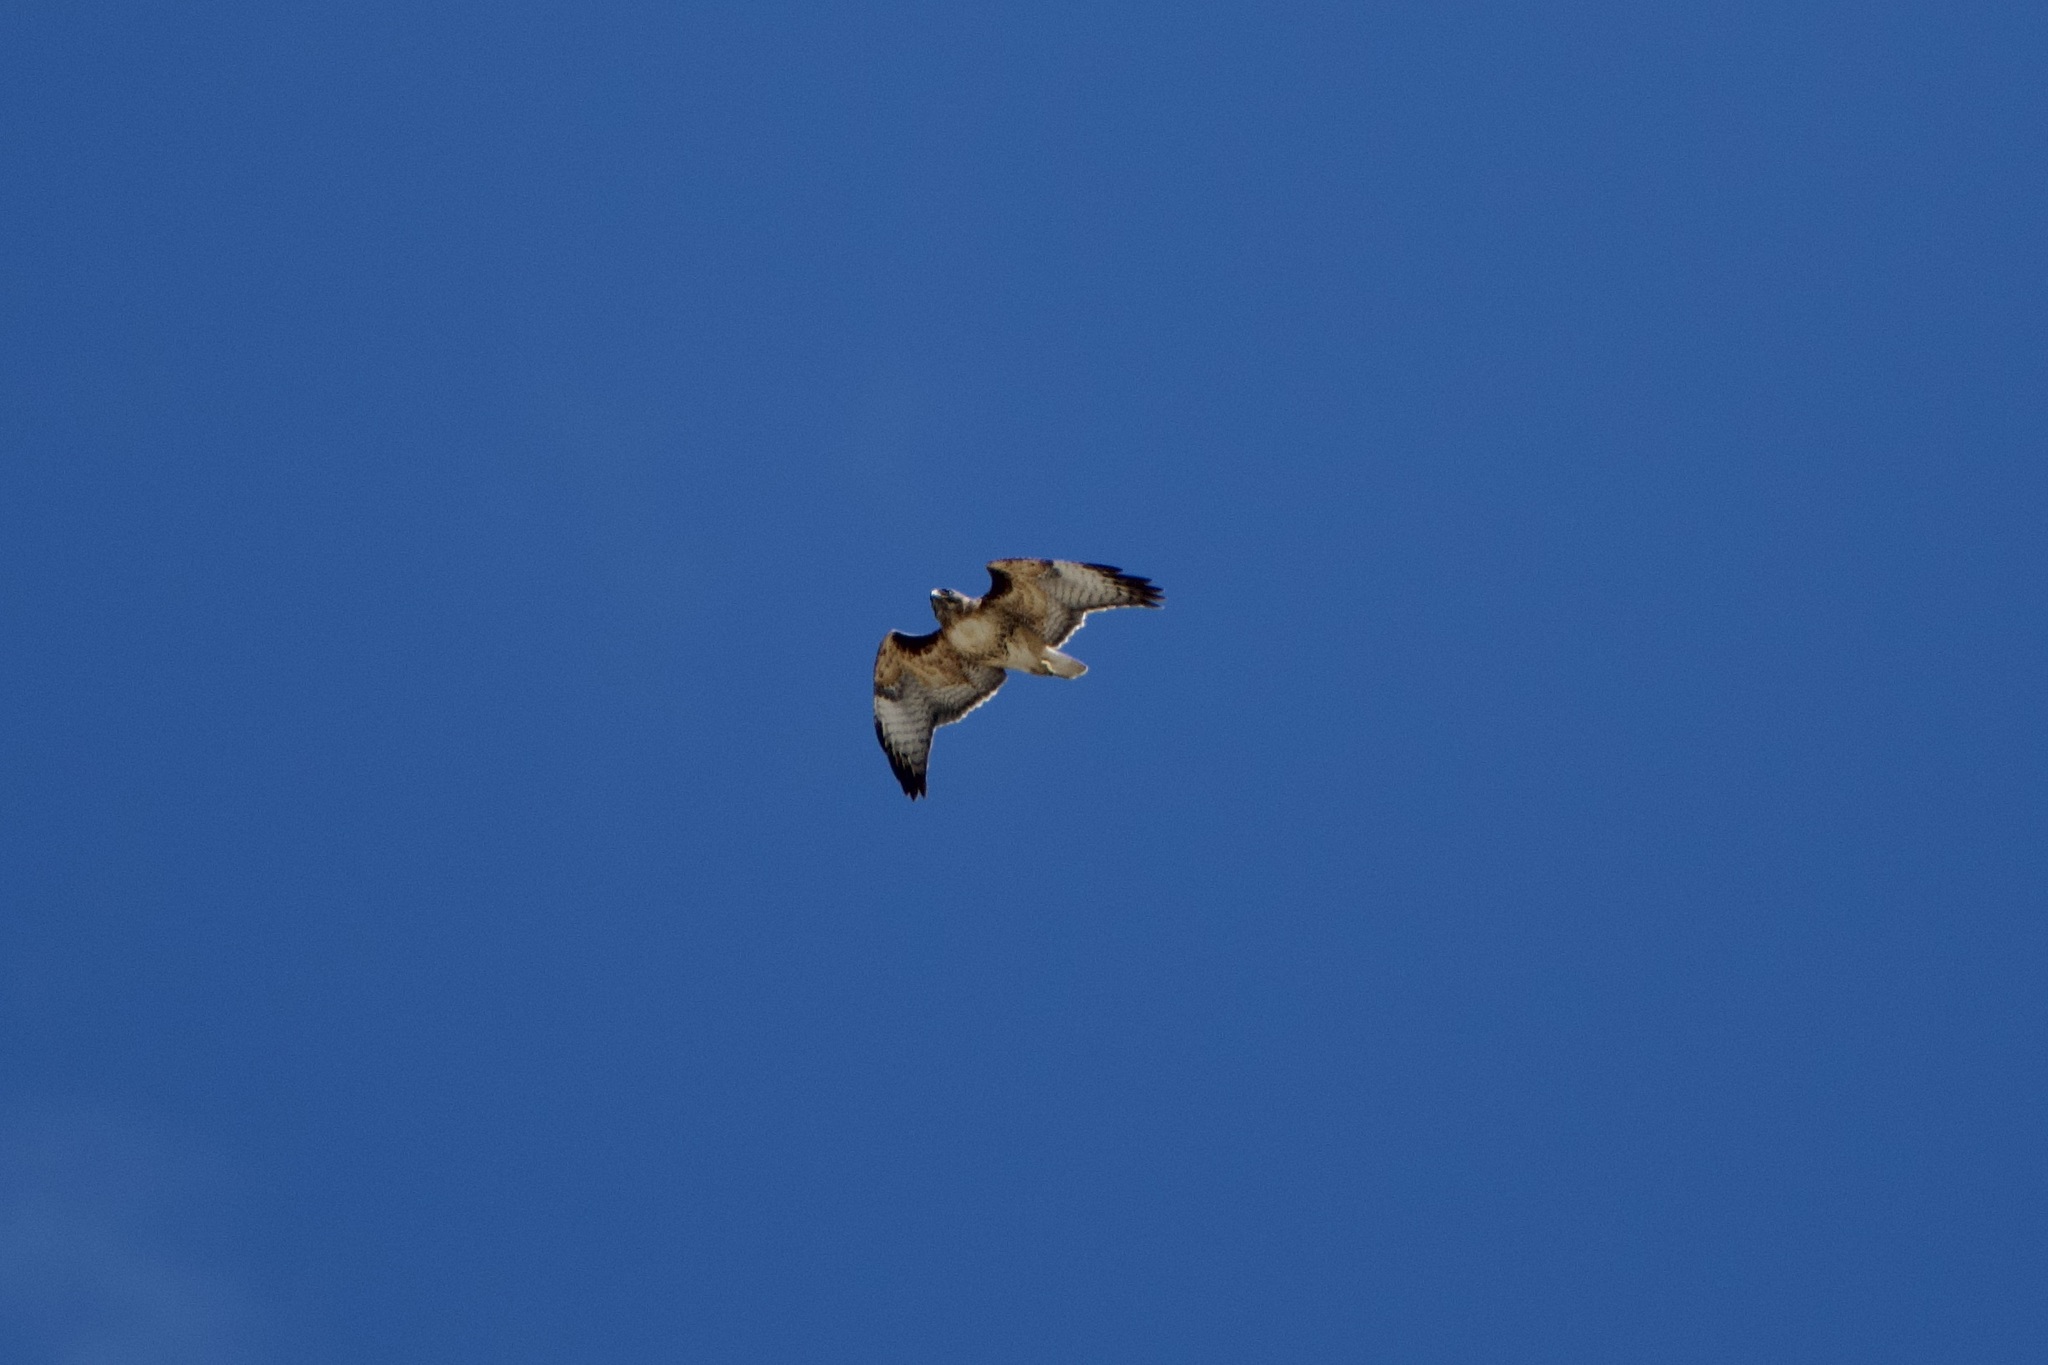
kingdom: Animalia
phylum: Chordata
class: Aves
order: Accipitriformes
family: Accipitridae
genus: Buteo
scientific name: Buteo jamaicensis
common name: Red-tailed hawk
